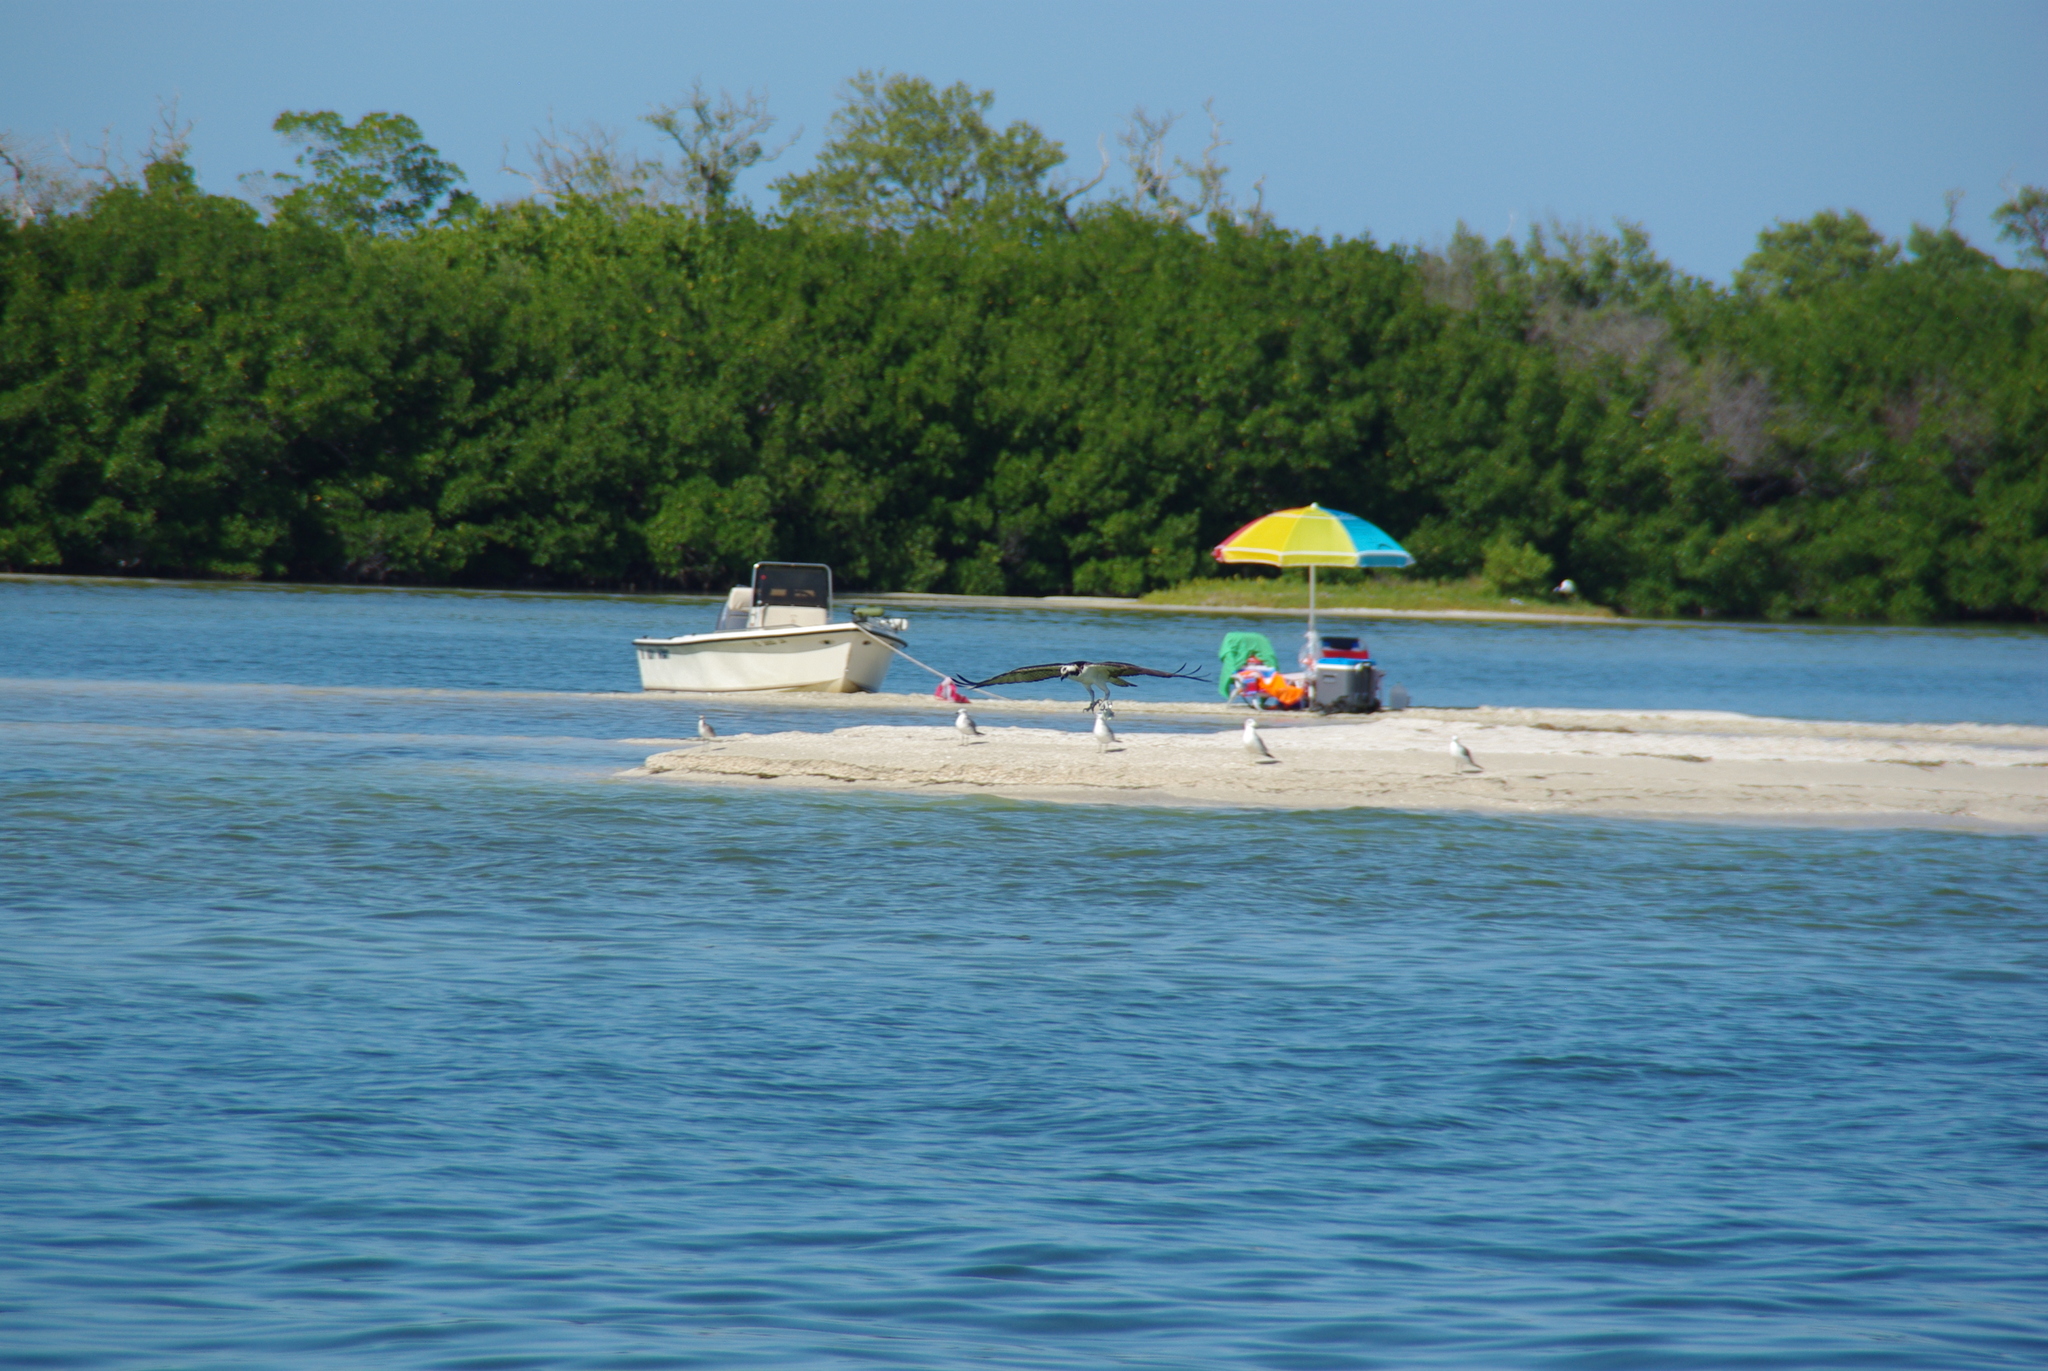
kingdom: Animalia
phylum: Chordata
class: Aves
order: Accipitriformes
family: Pandionidae
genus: Pandion
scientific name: Pandion haliaetus
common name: Osprey
